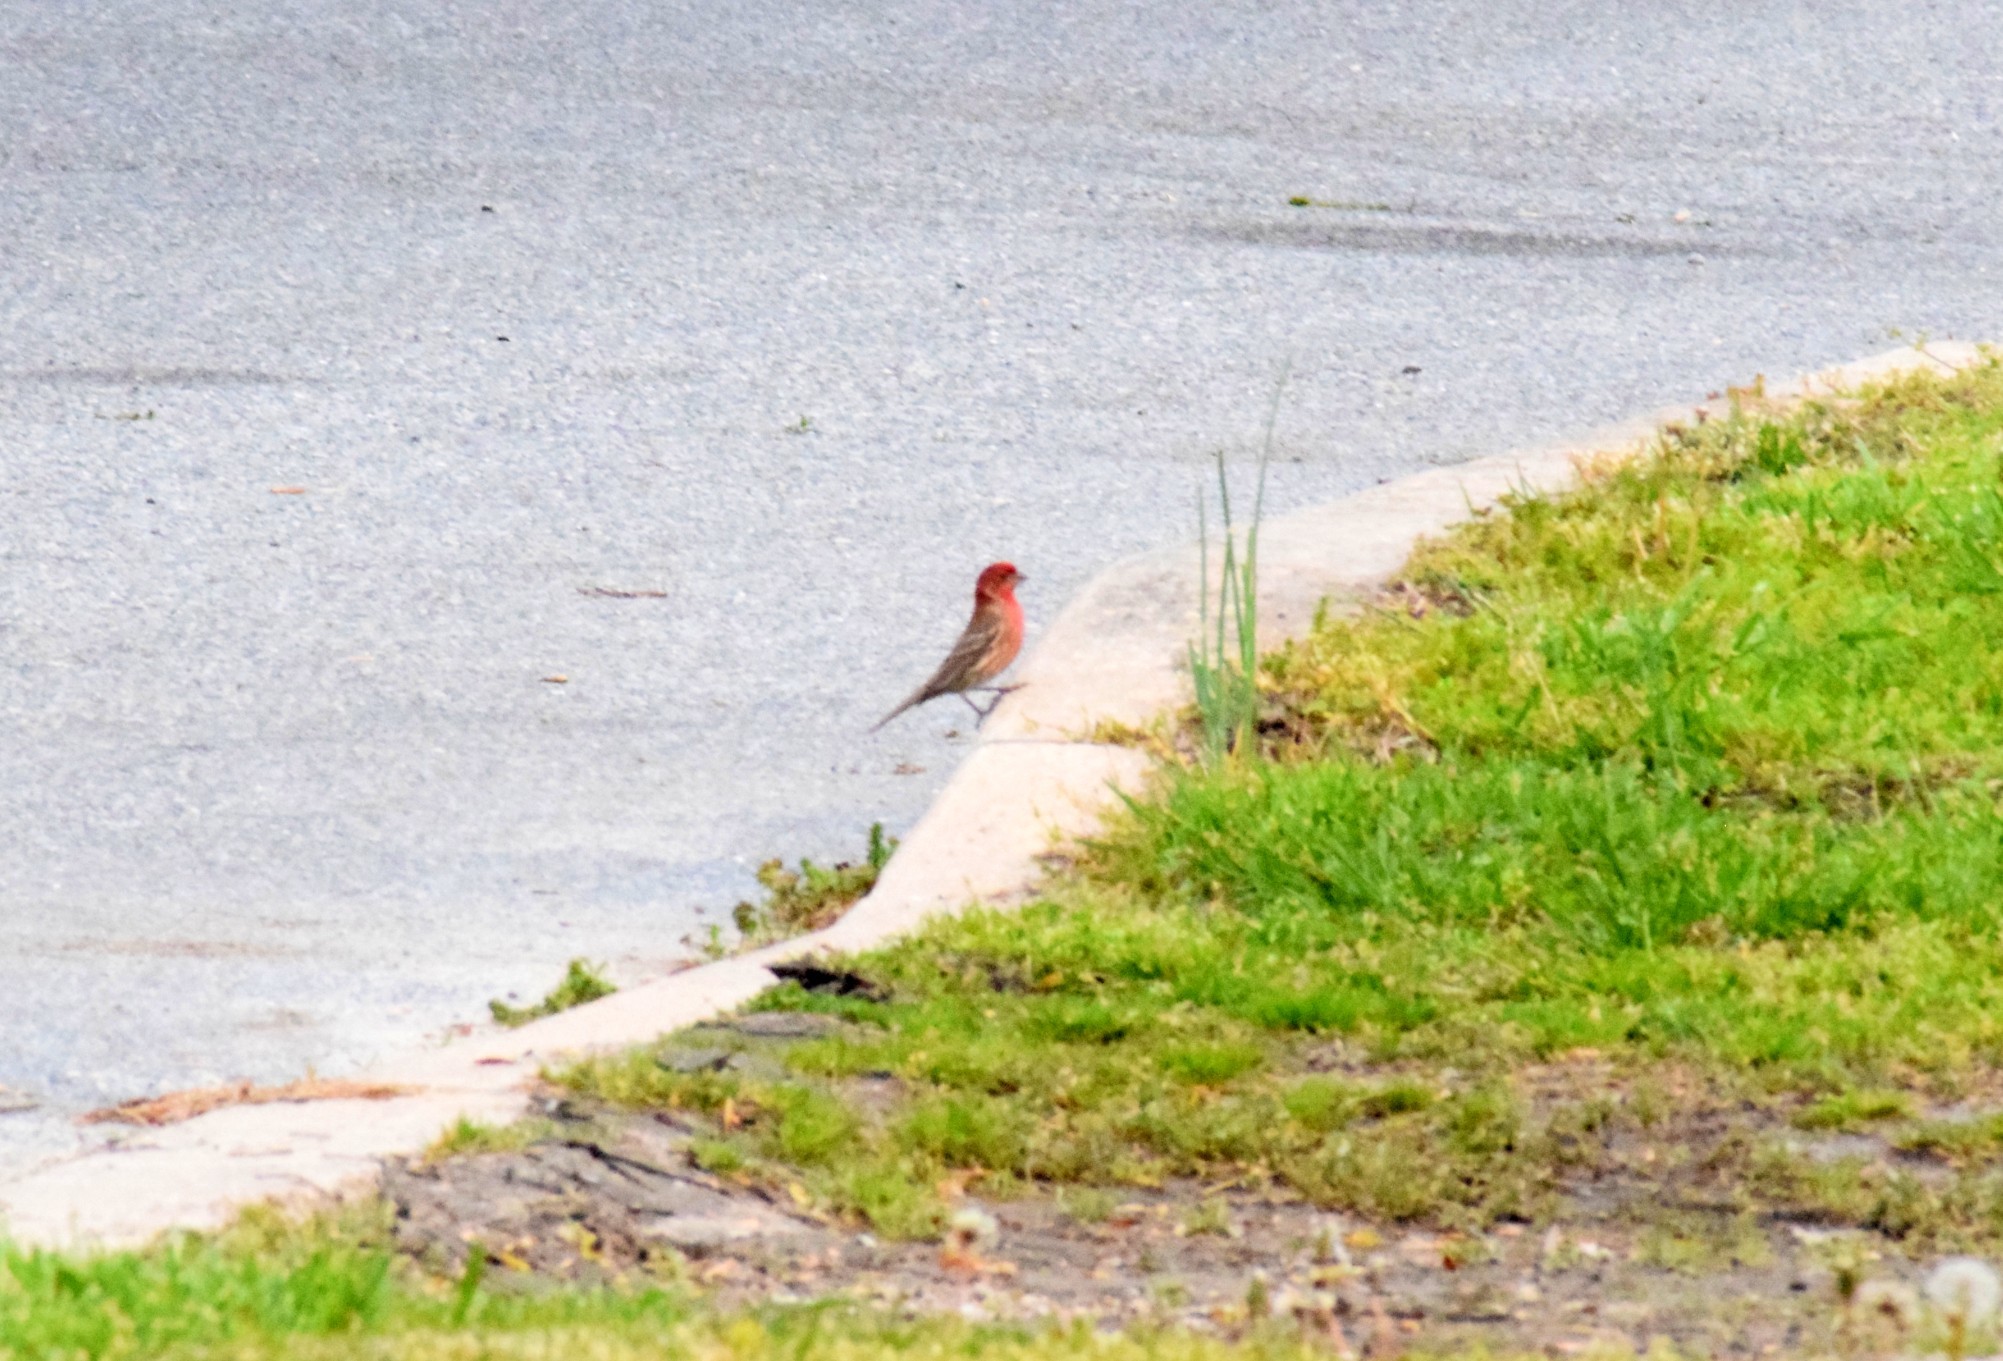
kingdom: Animalia
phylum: Chordata
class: Aves
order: Passeriformes
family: Fringillidae
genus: Haemorhous
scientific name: Haemorhous mexicanus
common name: House finch
